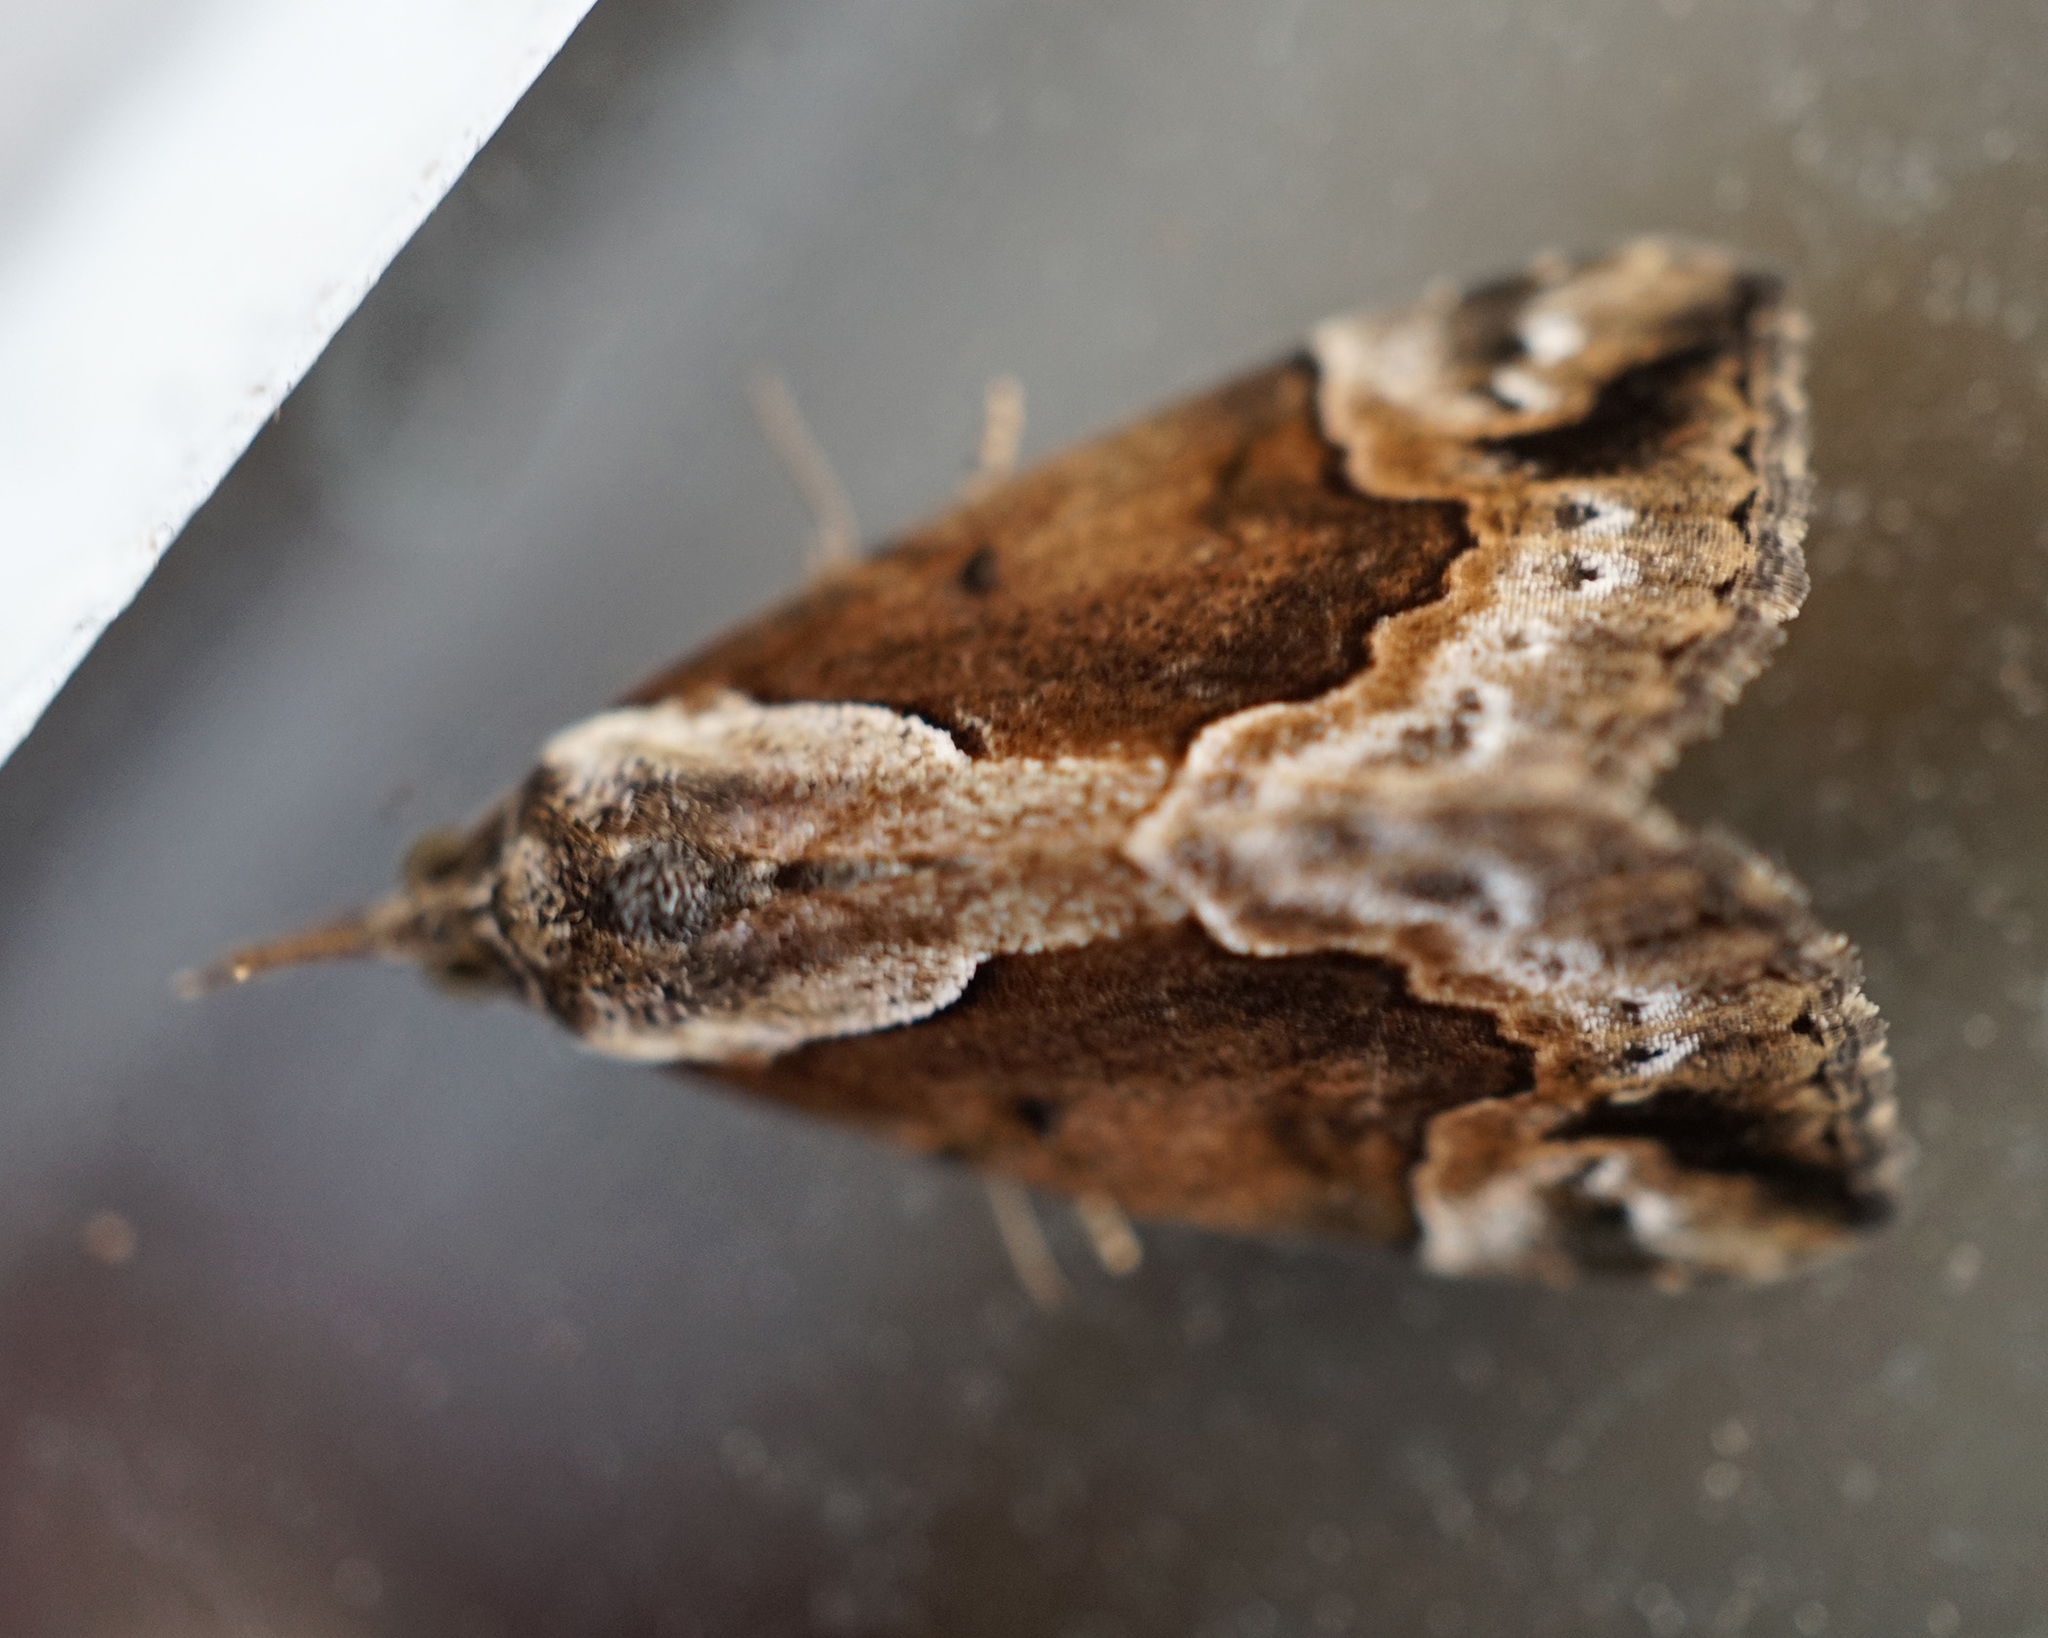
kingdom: Animalia
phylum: Arthropoda
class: Insecta
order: Lepidoptera
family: Erebidae
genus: Hypena
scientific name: Hypena baltimoralis
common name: Baltimore snout
